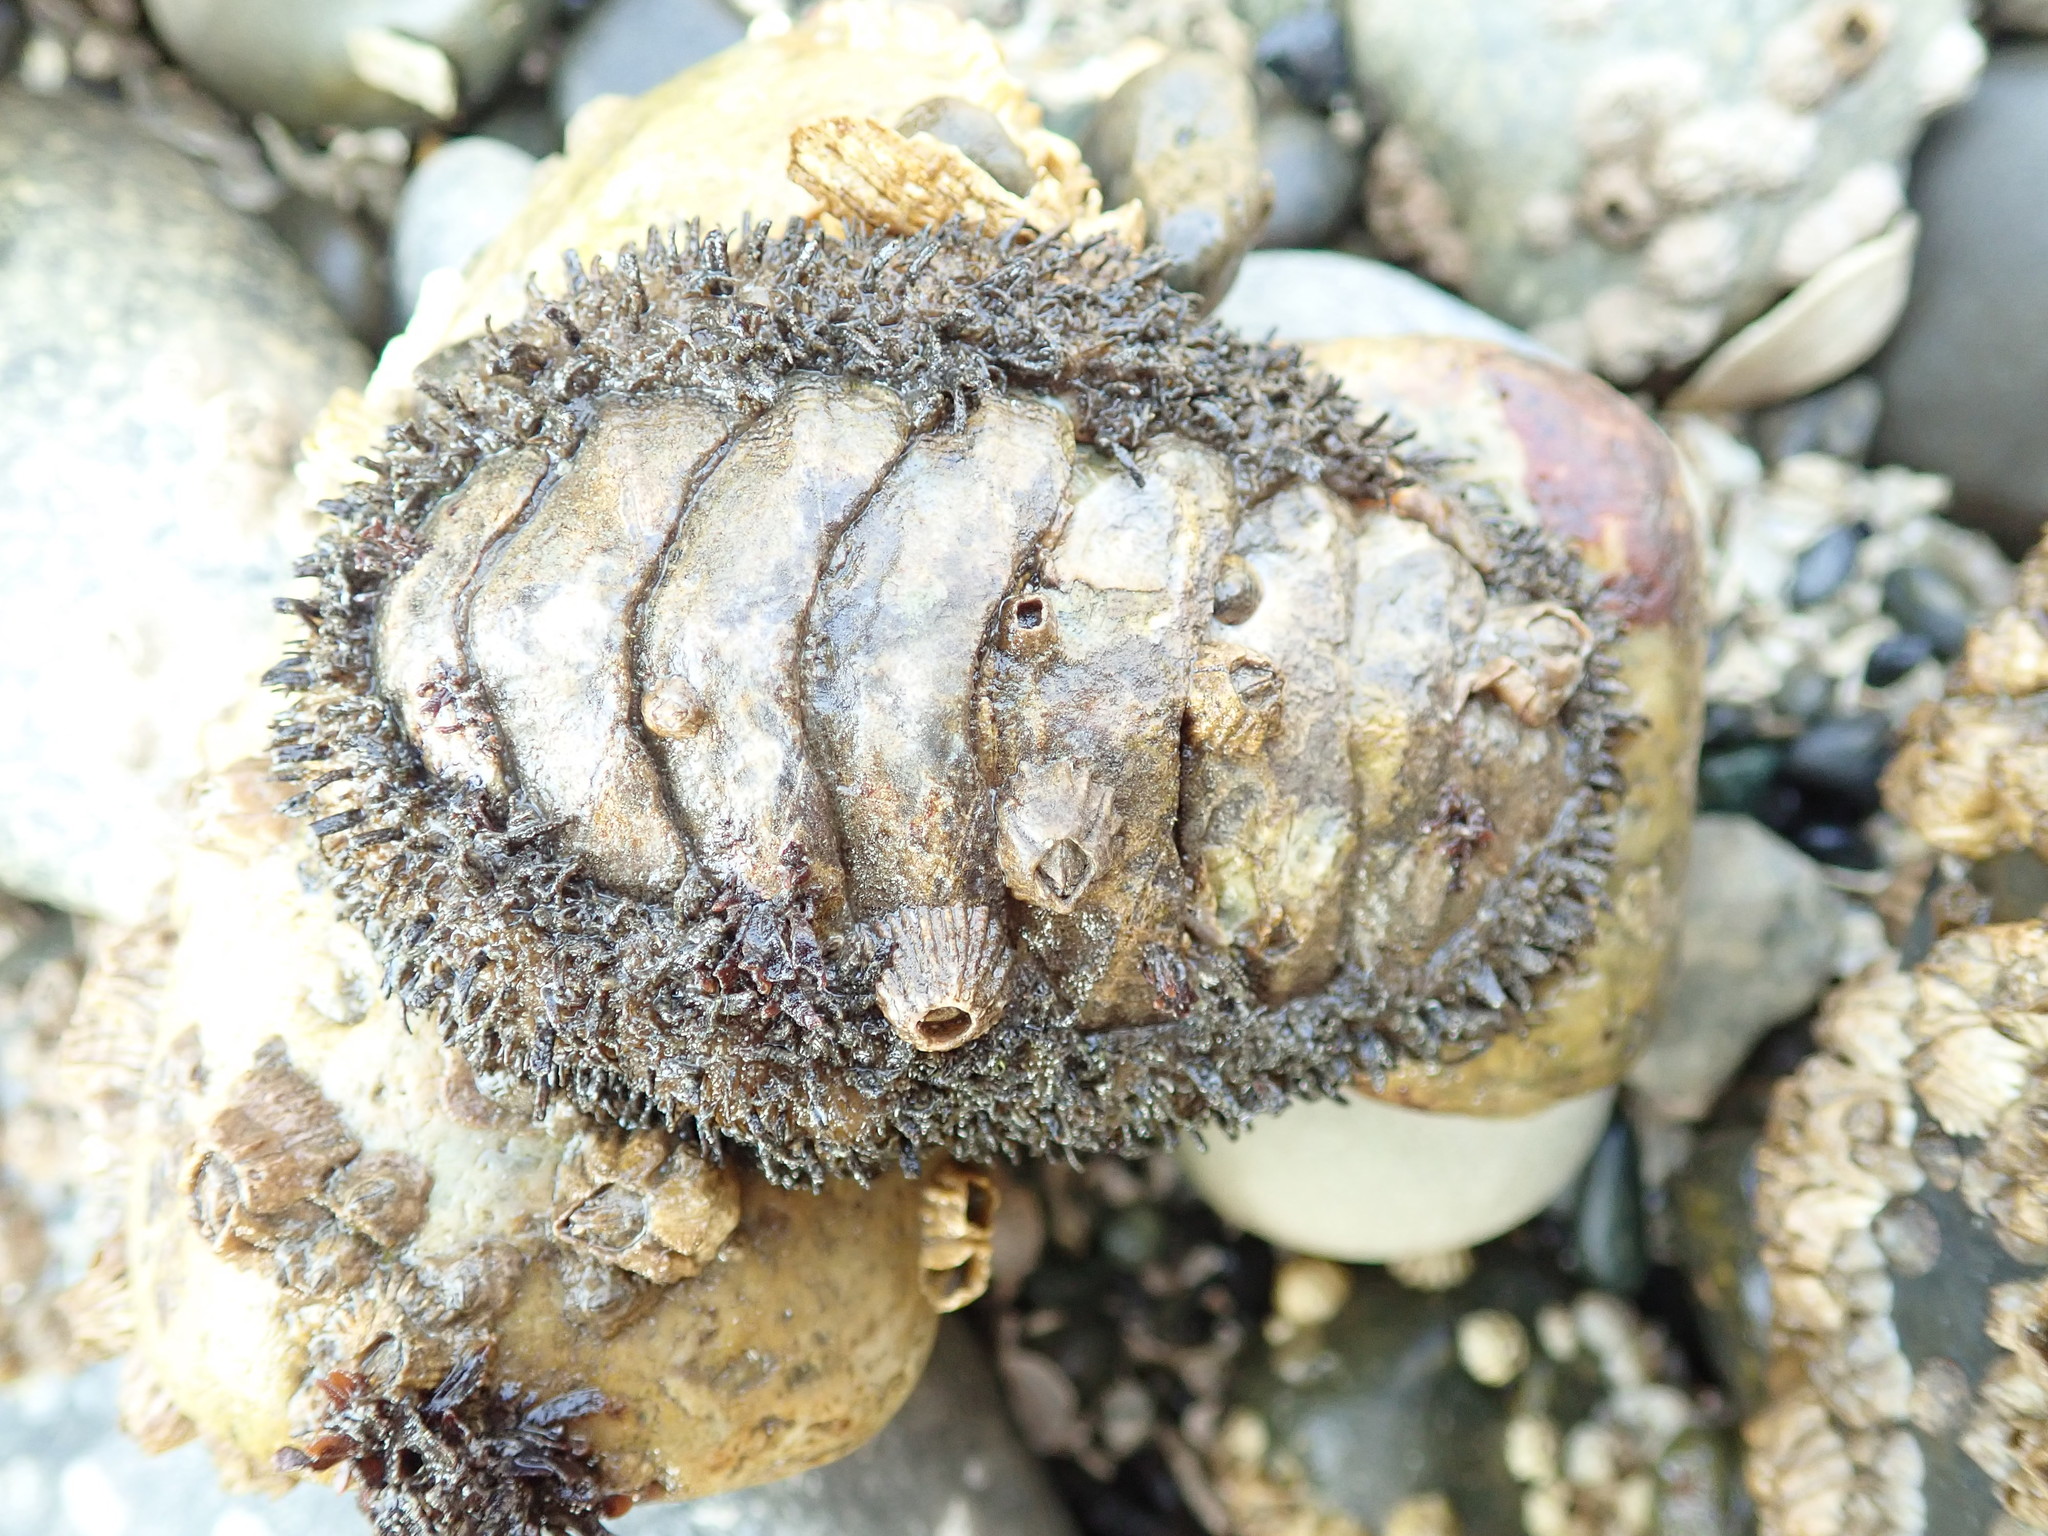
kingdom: Animalia
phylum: Mollusca
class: Polyplacophora
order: Chitonida
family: Mopaliidae
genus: Mopalia
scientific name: Mopalia muscosa
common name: Mossy chiton
